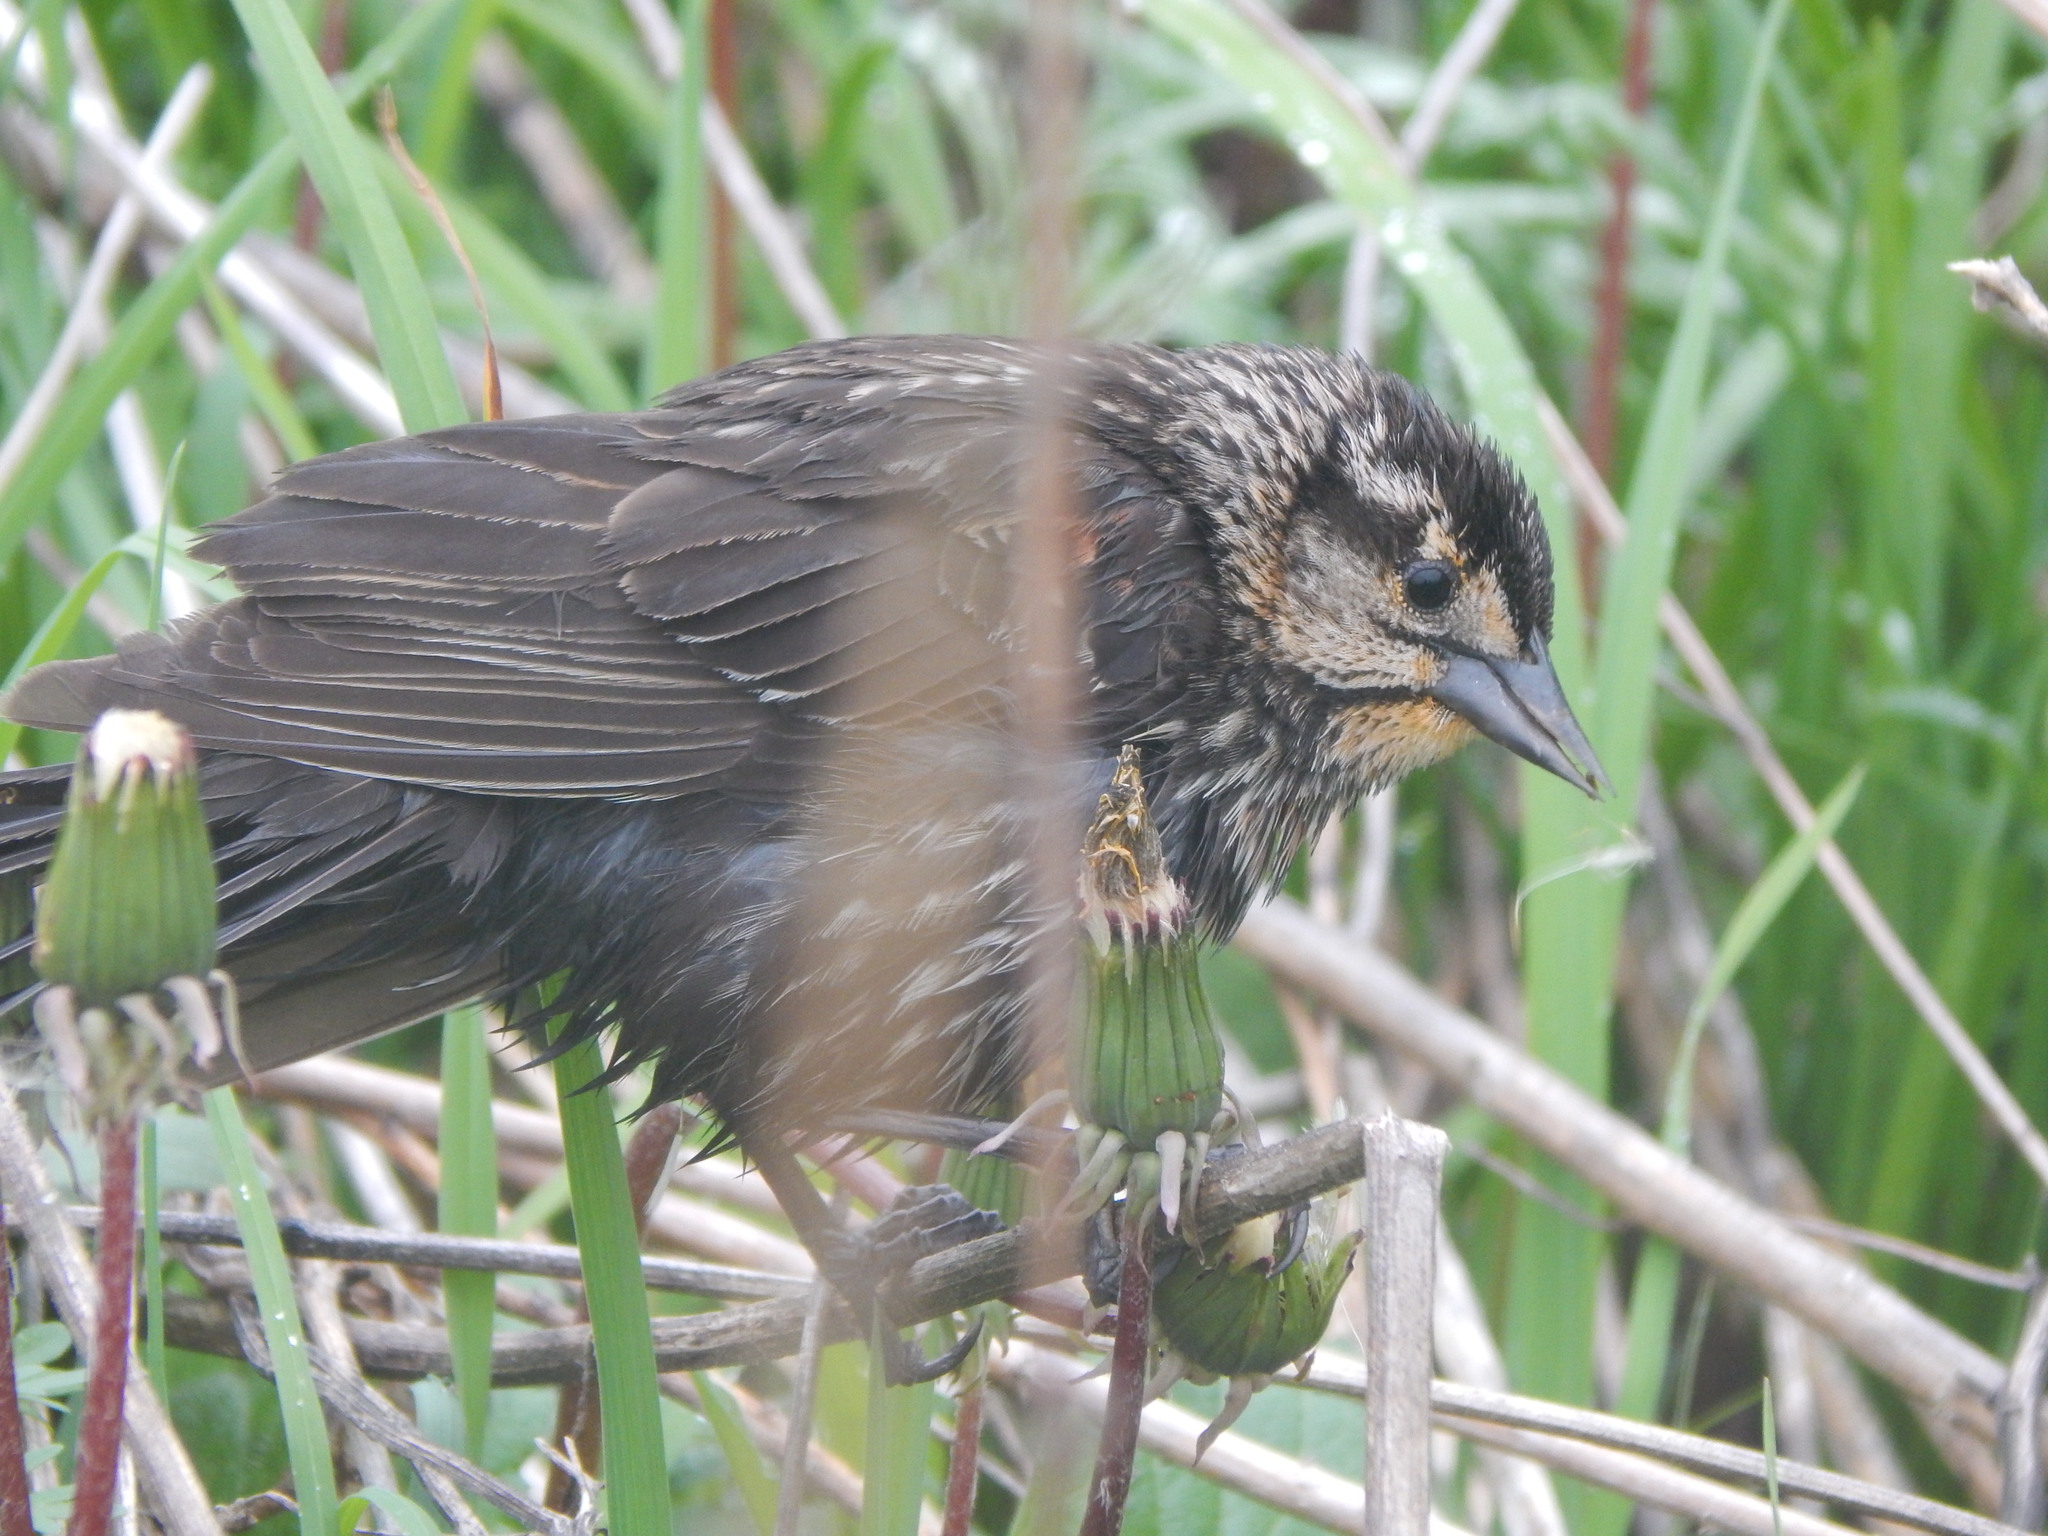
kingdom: Animalia
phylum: Chordata
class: Aves
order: Passeriformes
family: Icteridae
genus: Agelaius
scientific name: Agelaius phoeniceus
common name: Red-winged blackbird
